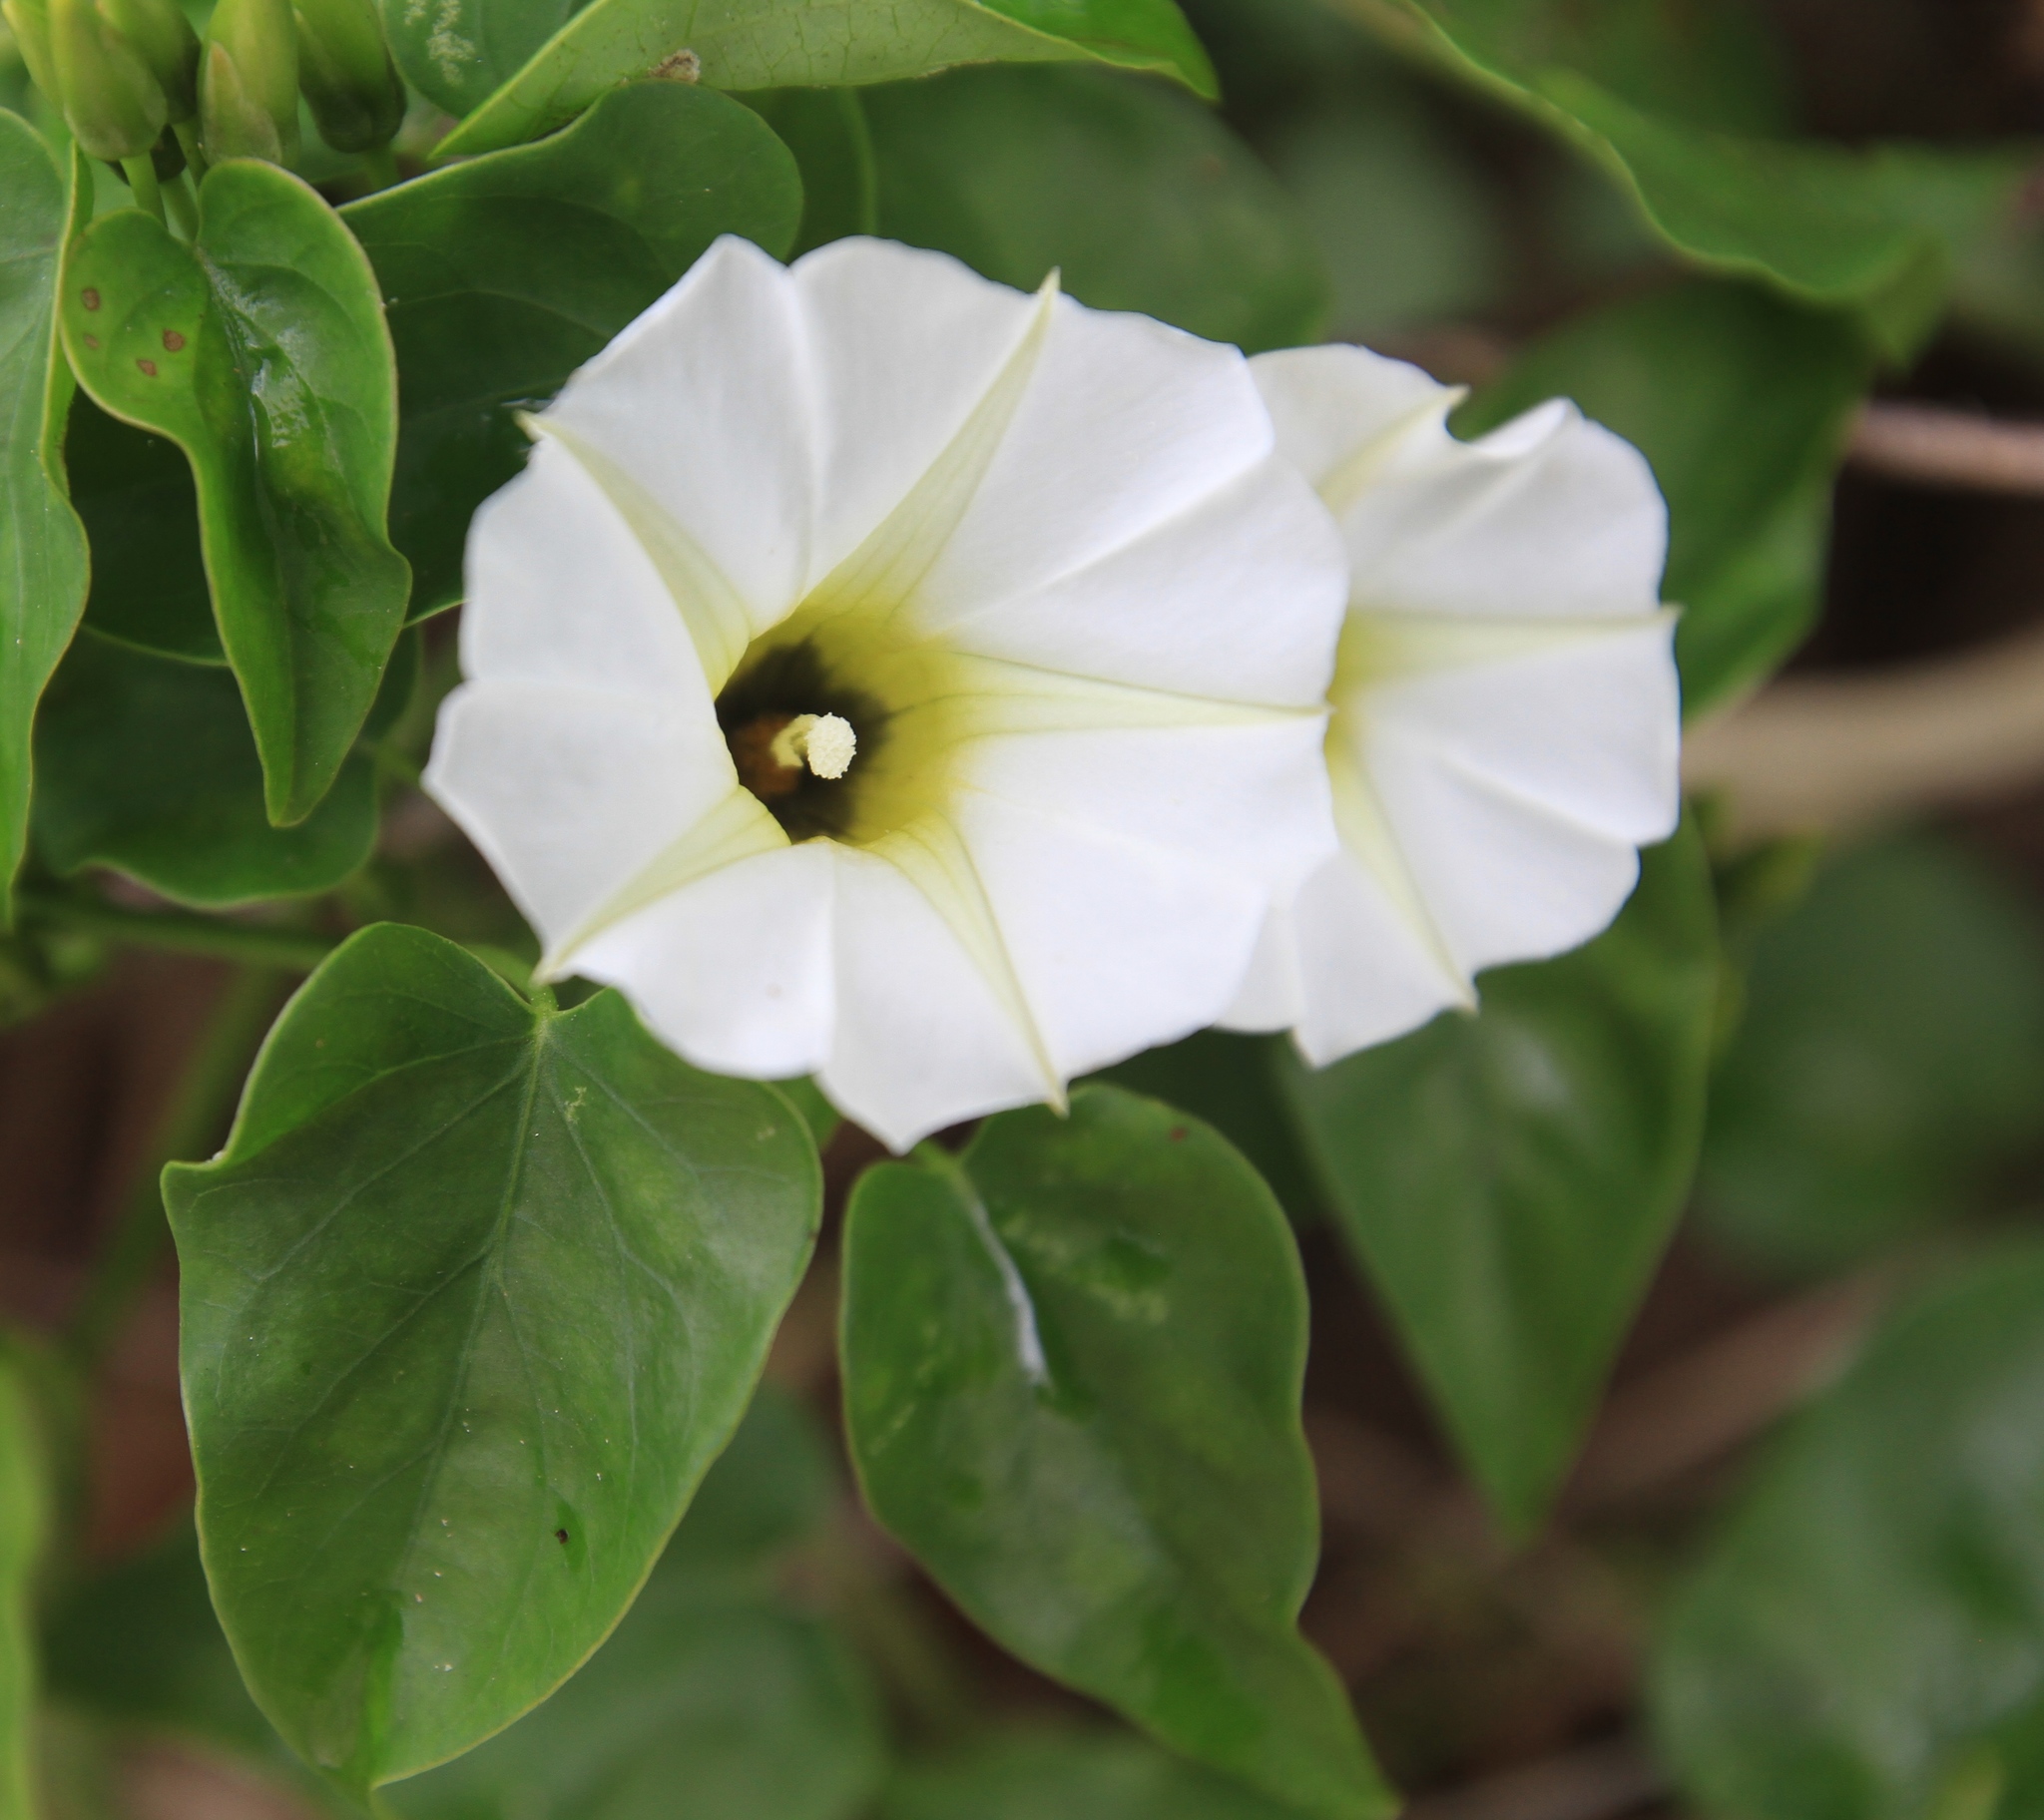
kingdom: Plantae
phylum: Tracheophyta
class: Magnoliopsida
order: Solanales
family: Convolvulaceae
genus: Ipomoea
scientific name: Ipomoea corymbosa
